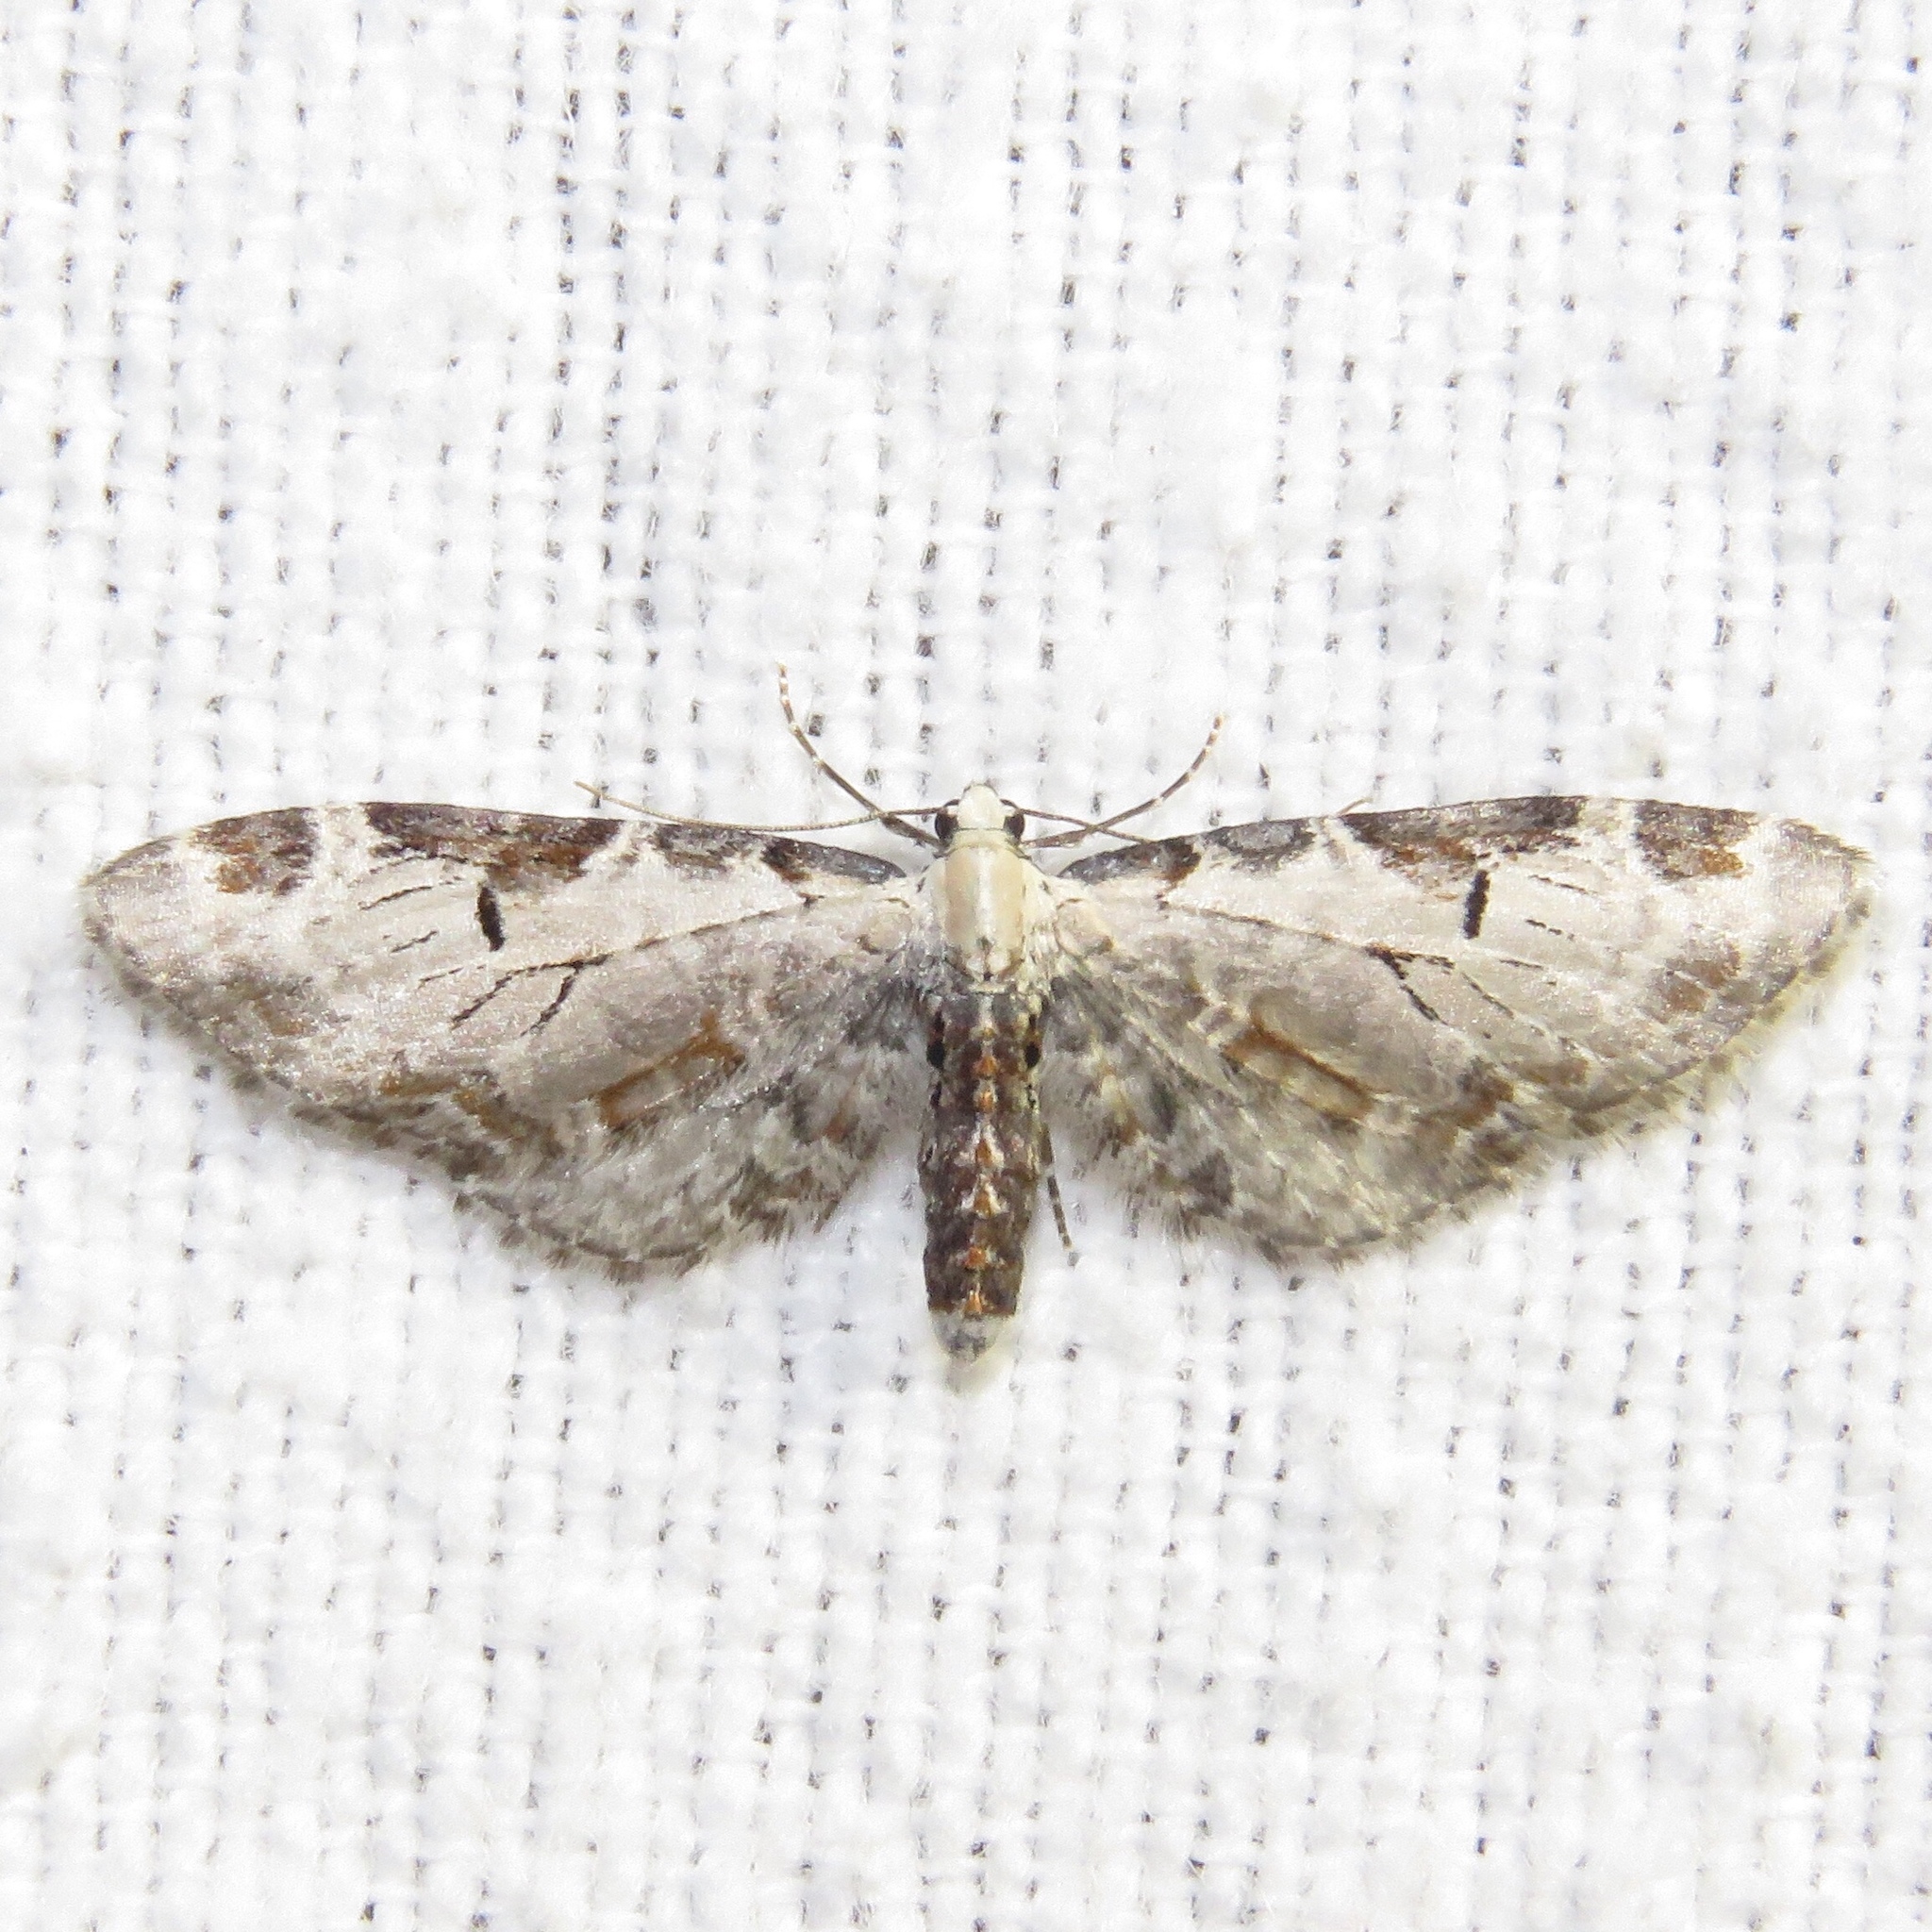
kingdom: Animalia
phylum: Arthropoda
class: Insecta
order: Lepidoptera
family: Geometridae
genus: Eupithecia
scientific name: Eupithecia ravocostaliata
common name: Great varigated pug
